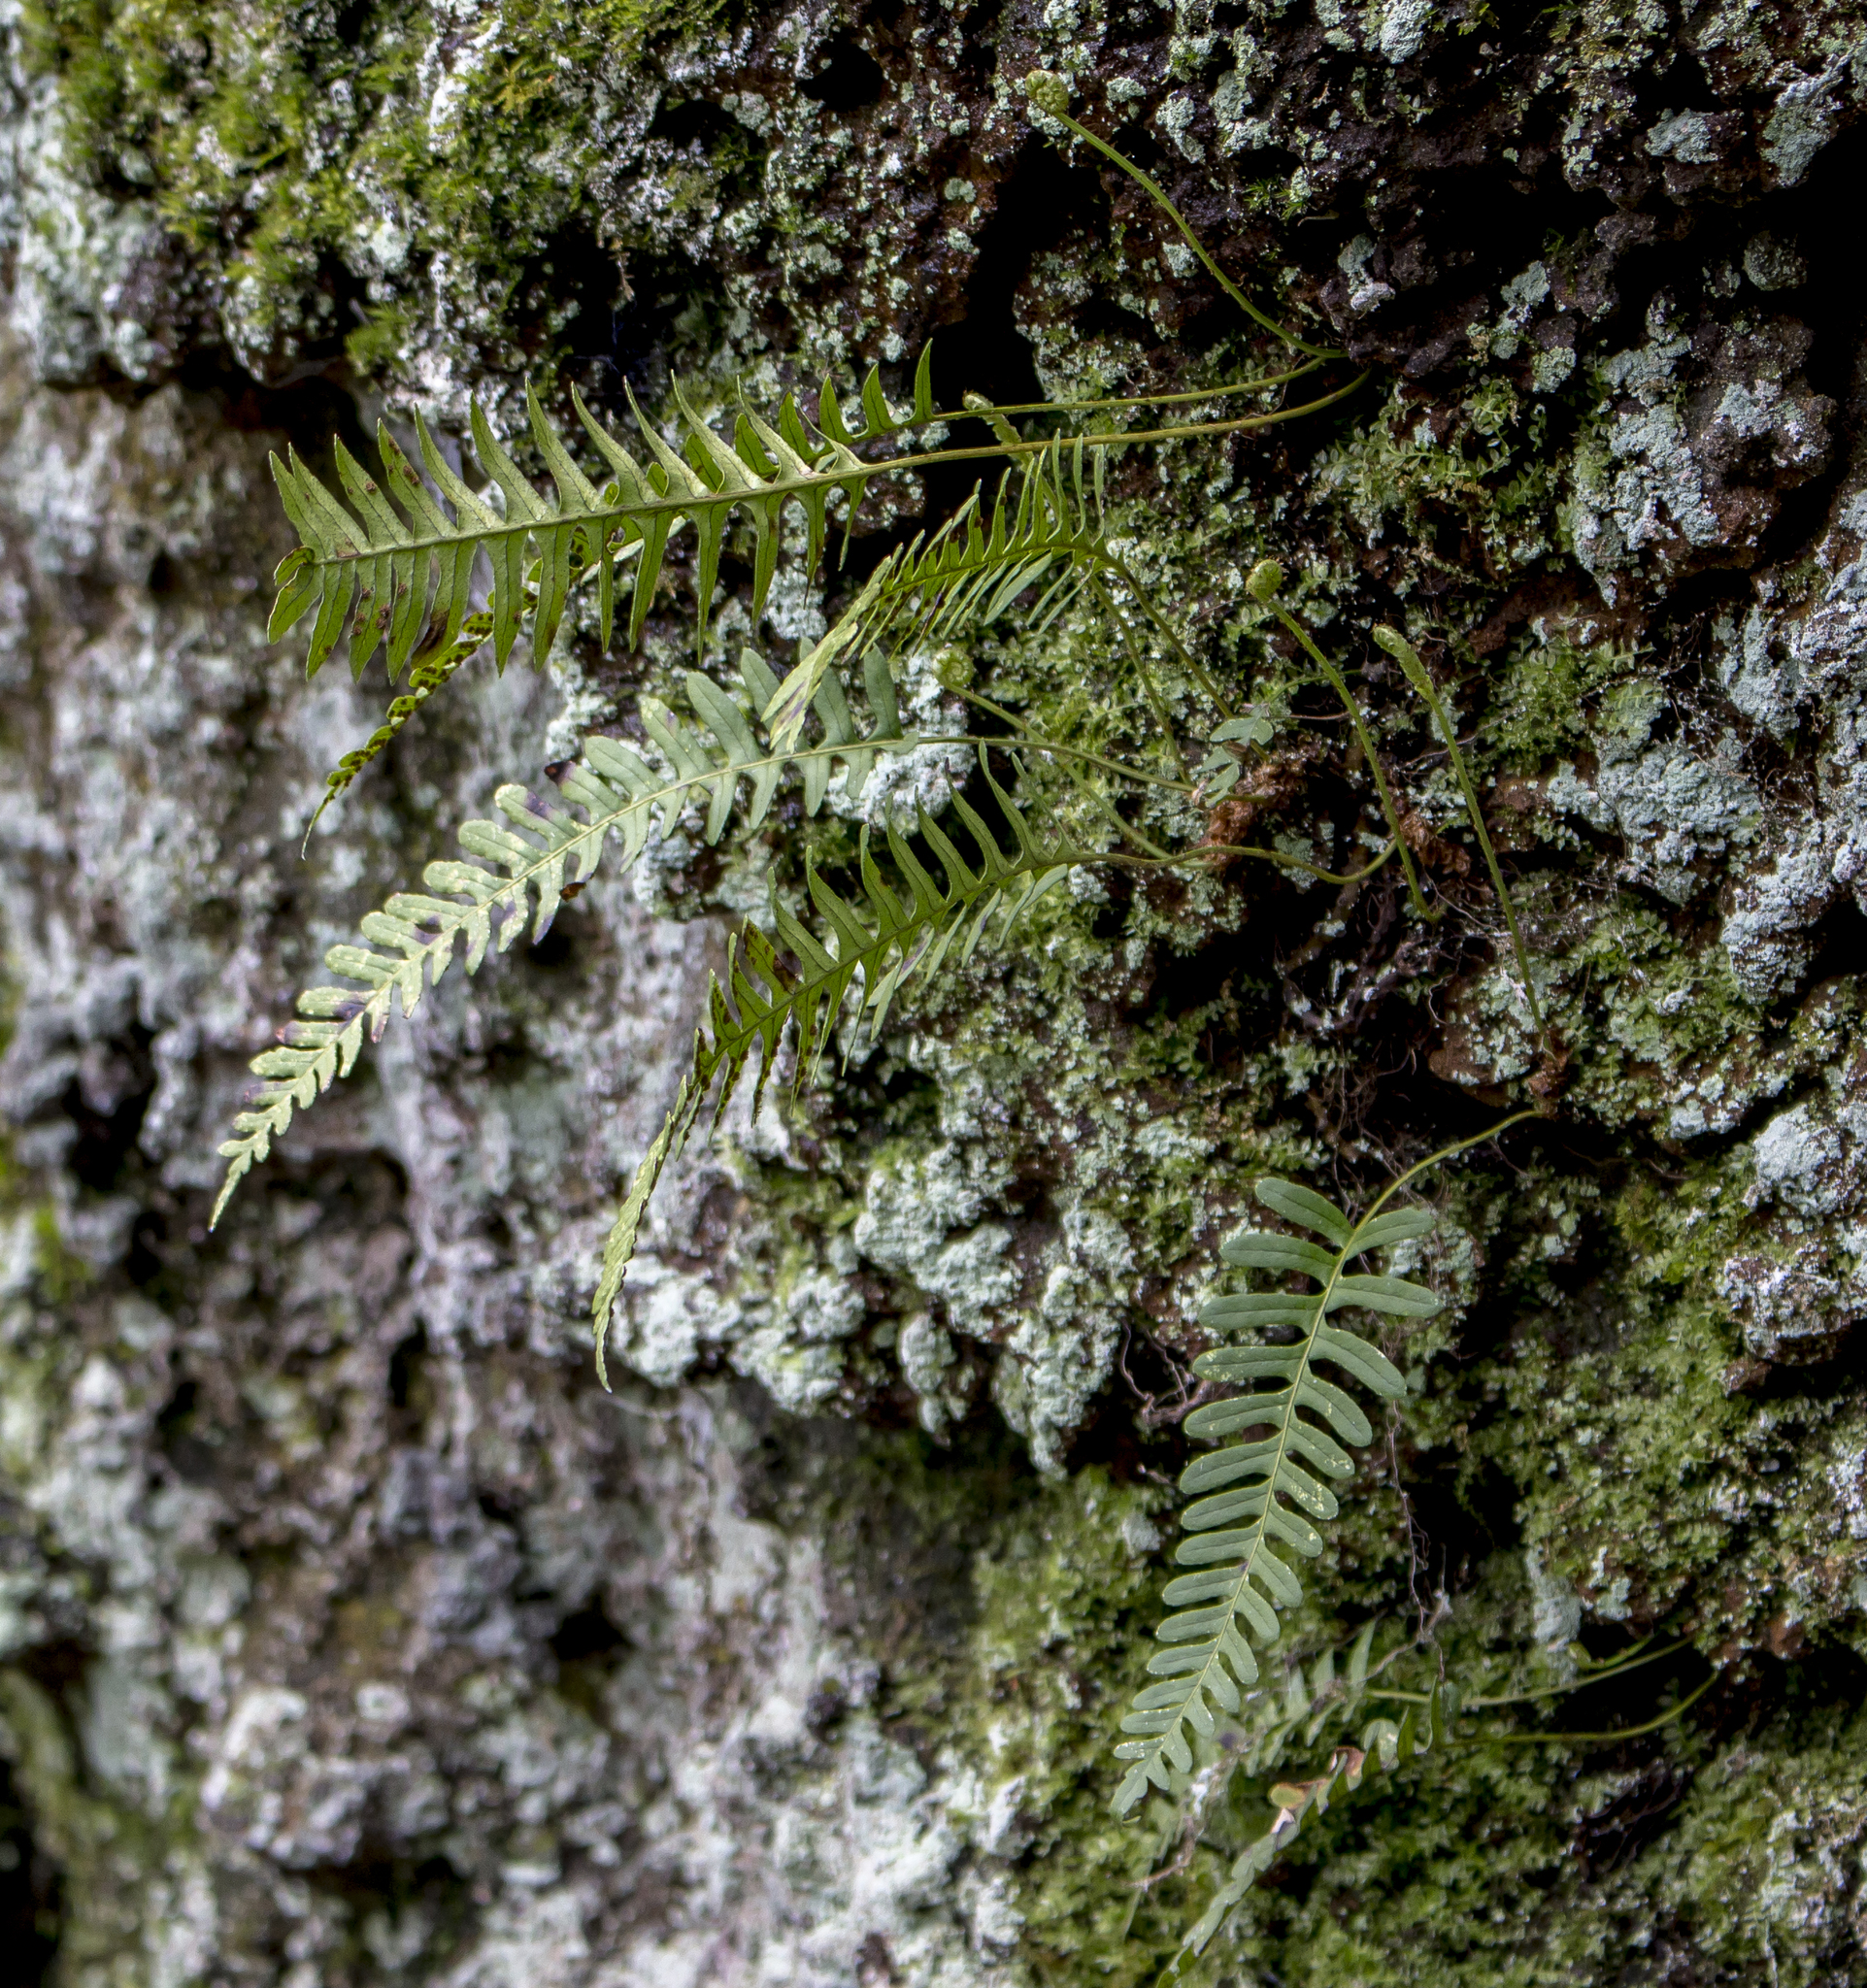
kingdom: Plantae
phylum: Tracheophyta
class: Polypodiopsida
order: Polypodiales
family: Polypodiaceae
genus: Polypodium
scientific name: Polypodium virginianum
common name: American wall fern
